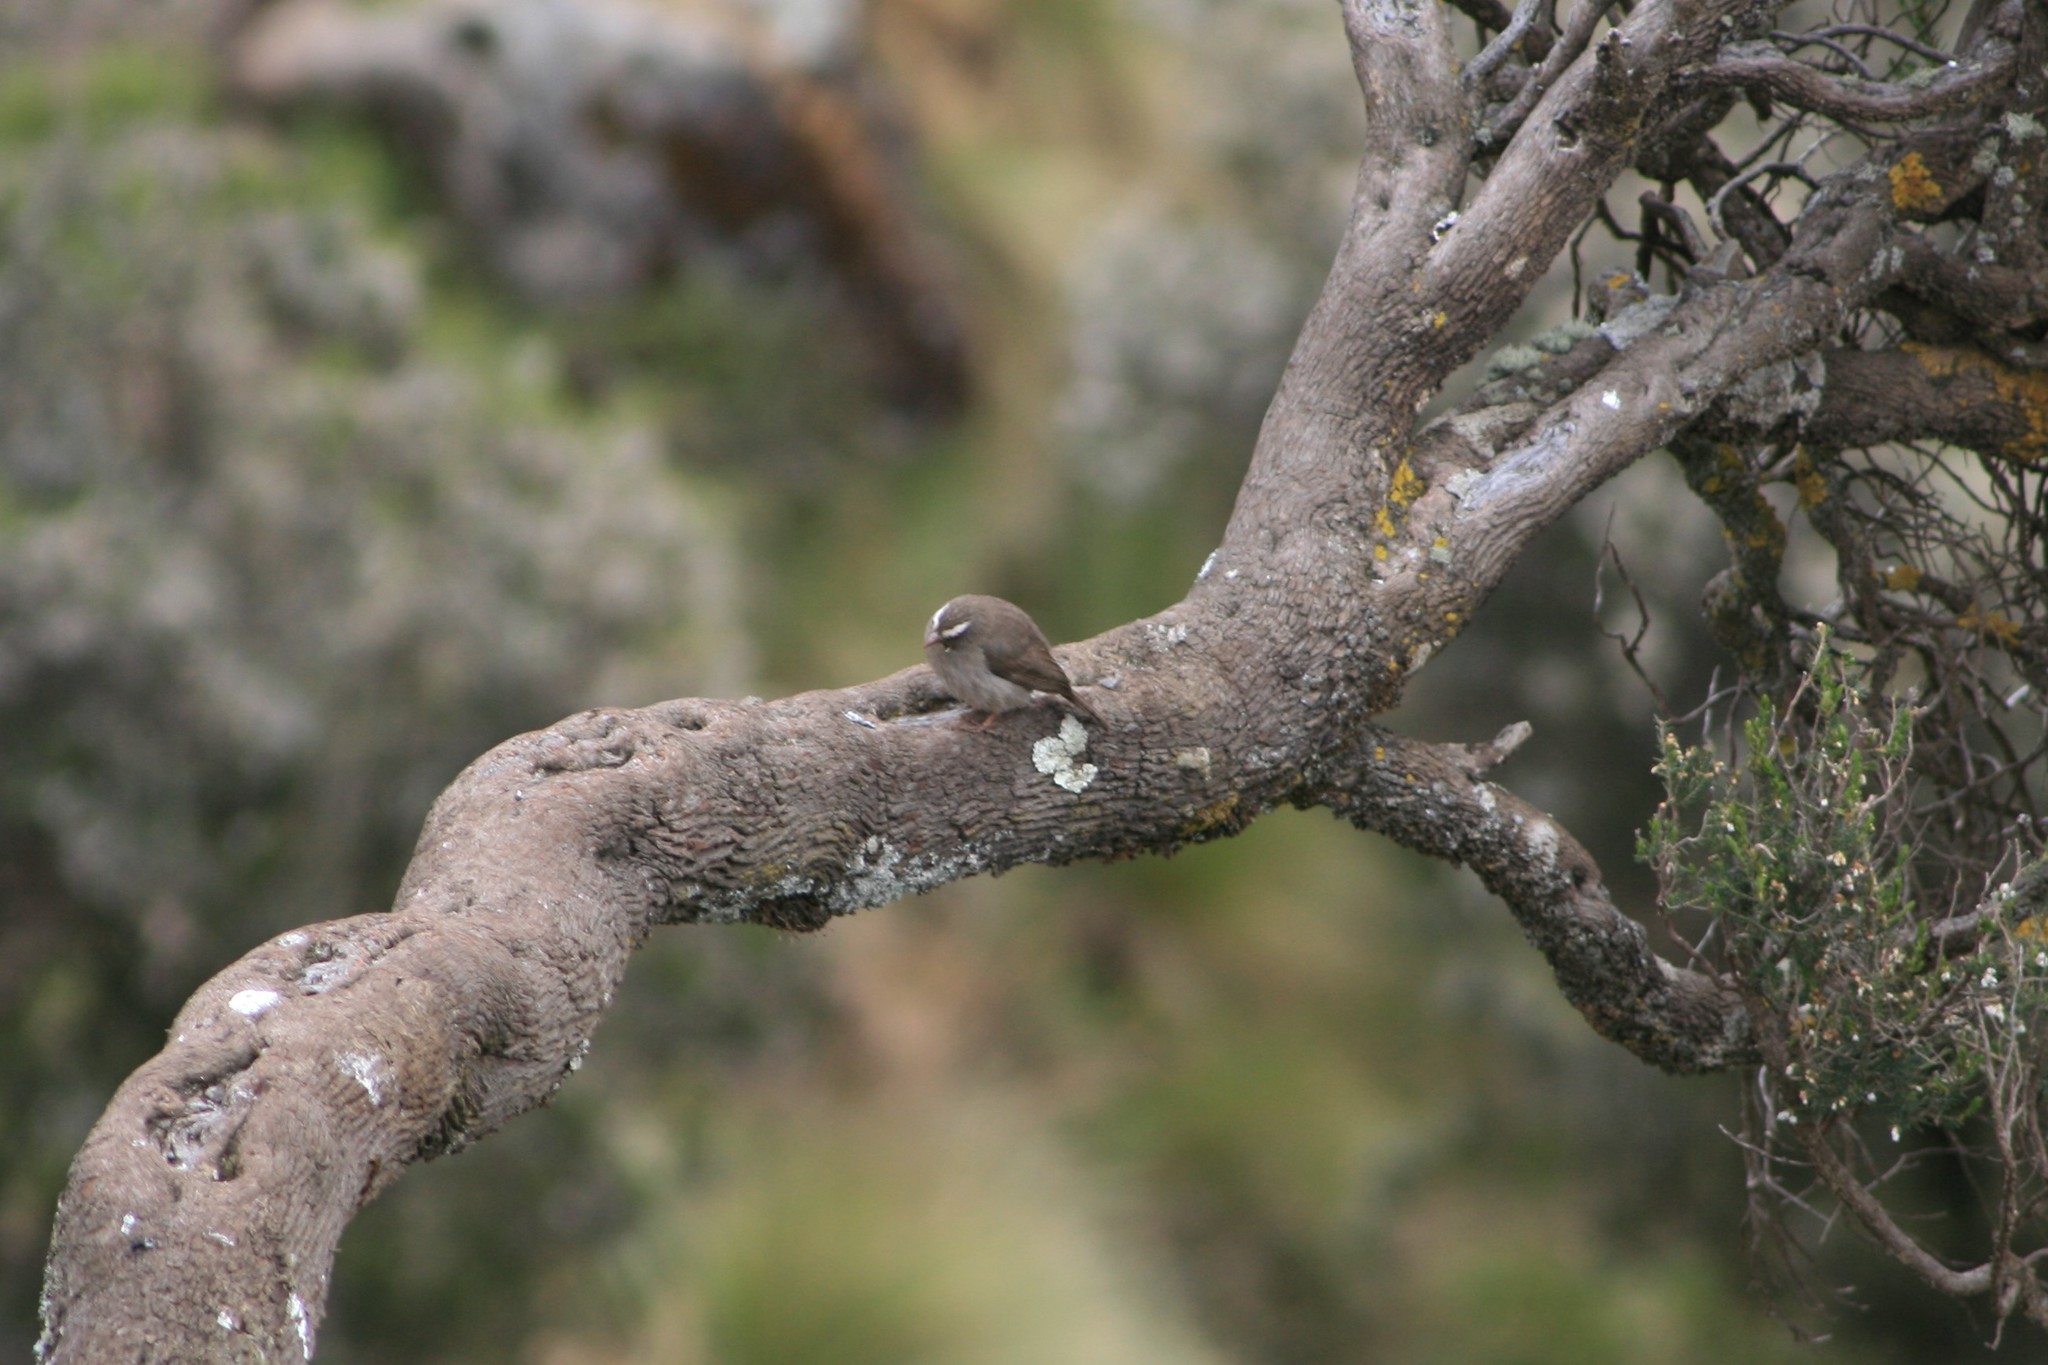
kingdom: Animalia
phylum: Chordata
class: Aves
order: Passeriformes
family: Fringillidae
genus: Crithagra
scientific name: Crithagra tristriata
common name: Brown-rumped seedeater
